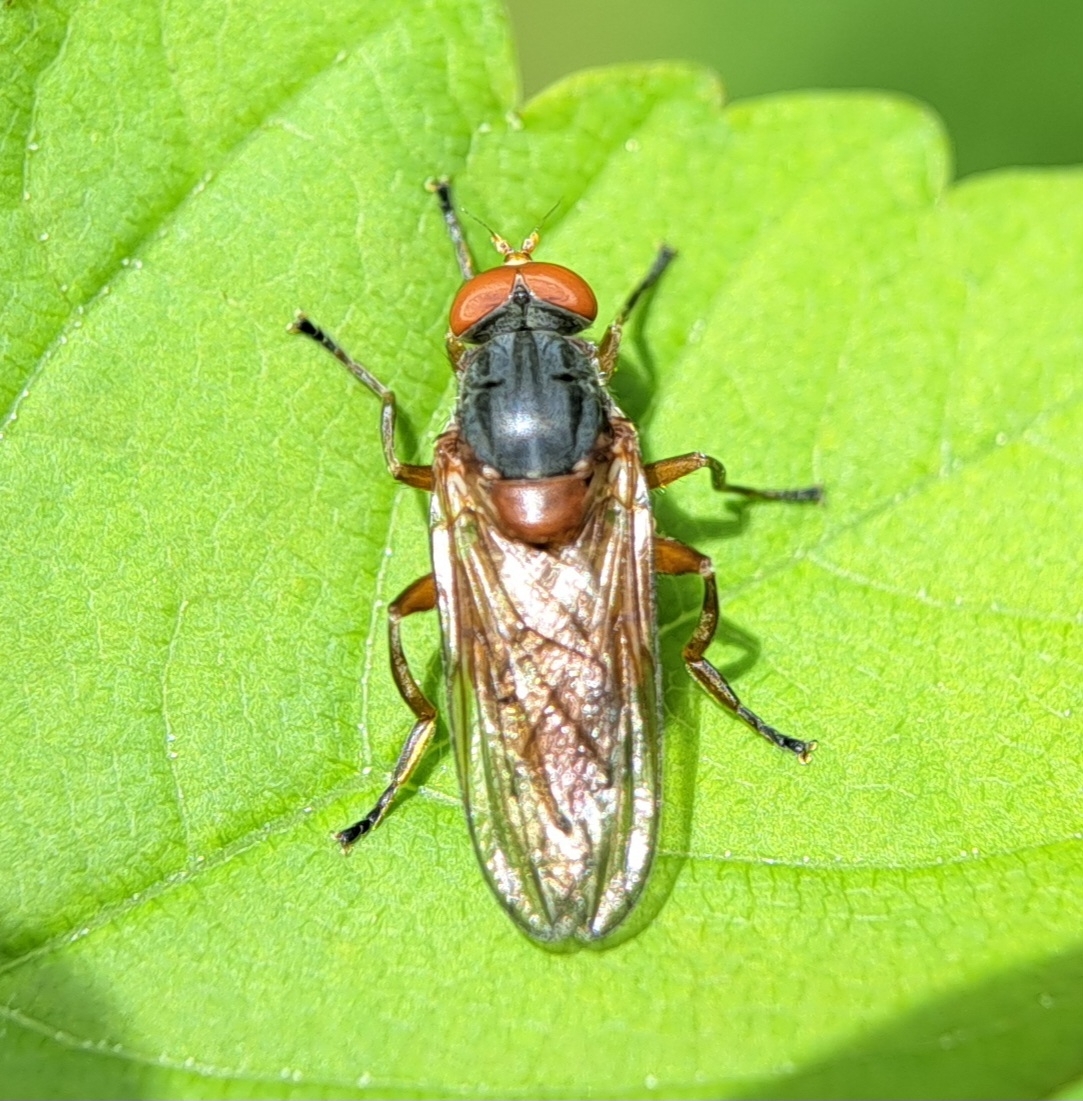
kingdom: Animalia
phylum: Arthropoda
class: Insecta
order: Diptera
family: Syrphidae
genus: Brachyopa
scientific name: Brachyopa
